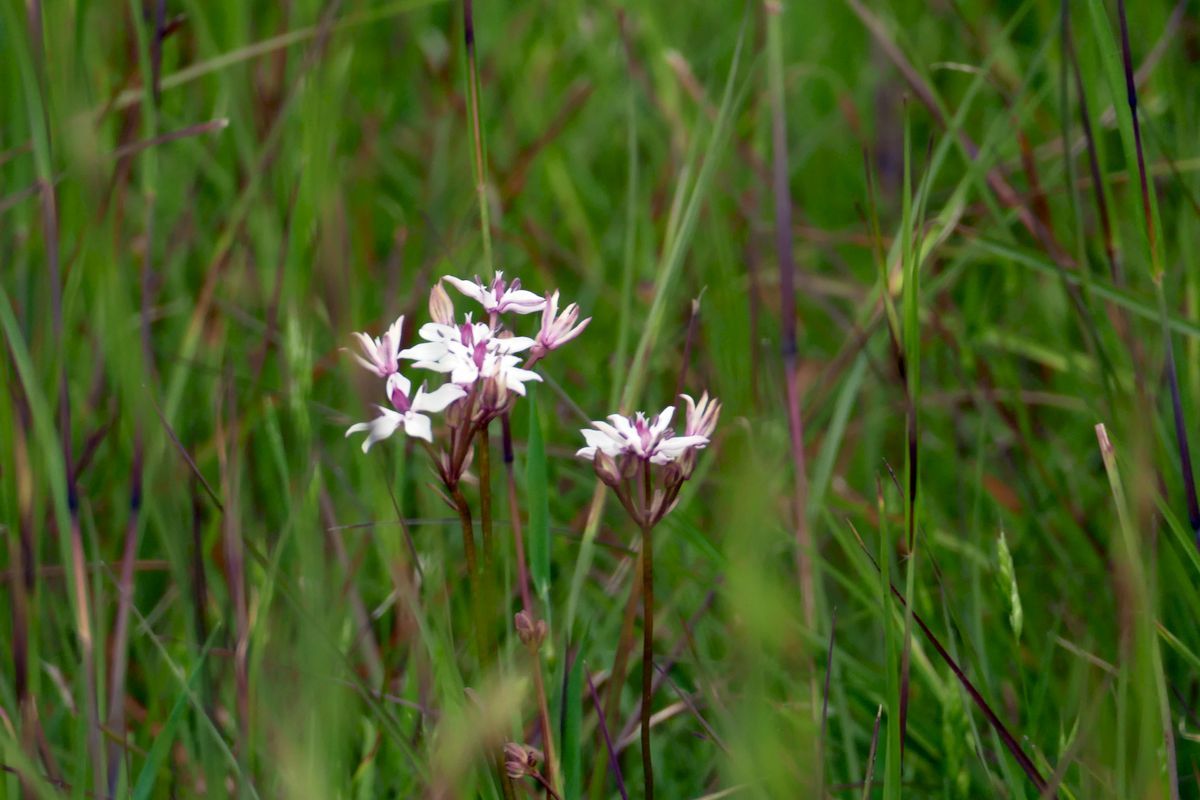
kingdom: Plantae
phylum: Tracheophyta
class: Liliopsida
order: Liliales
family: Colchicaceae
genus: Burchardia
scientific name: Burchardia umbellata
